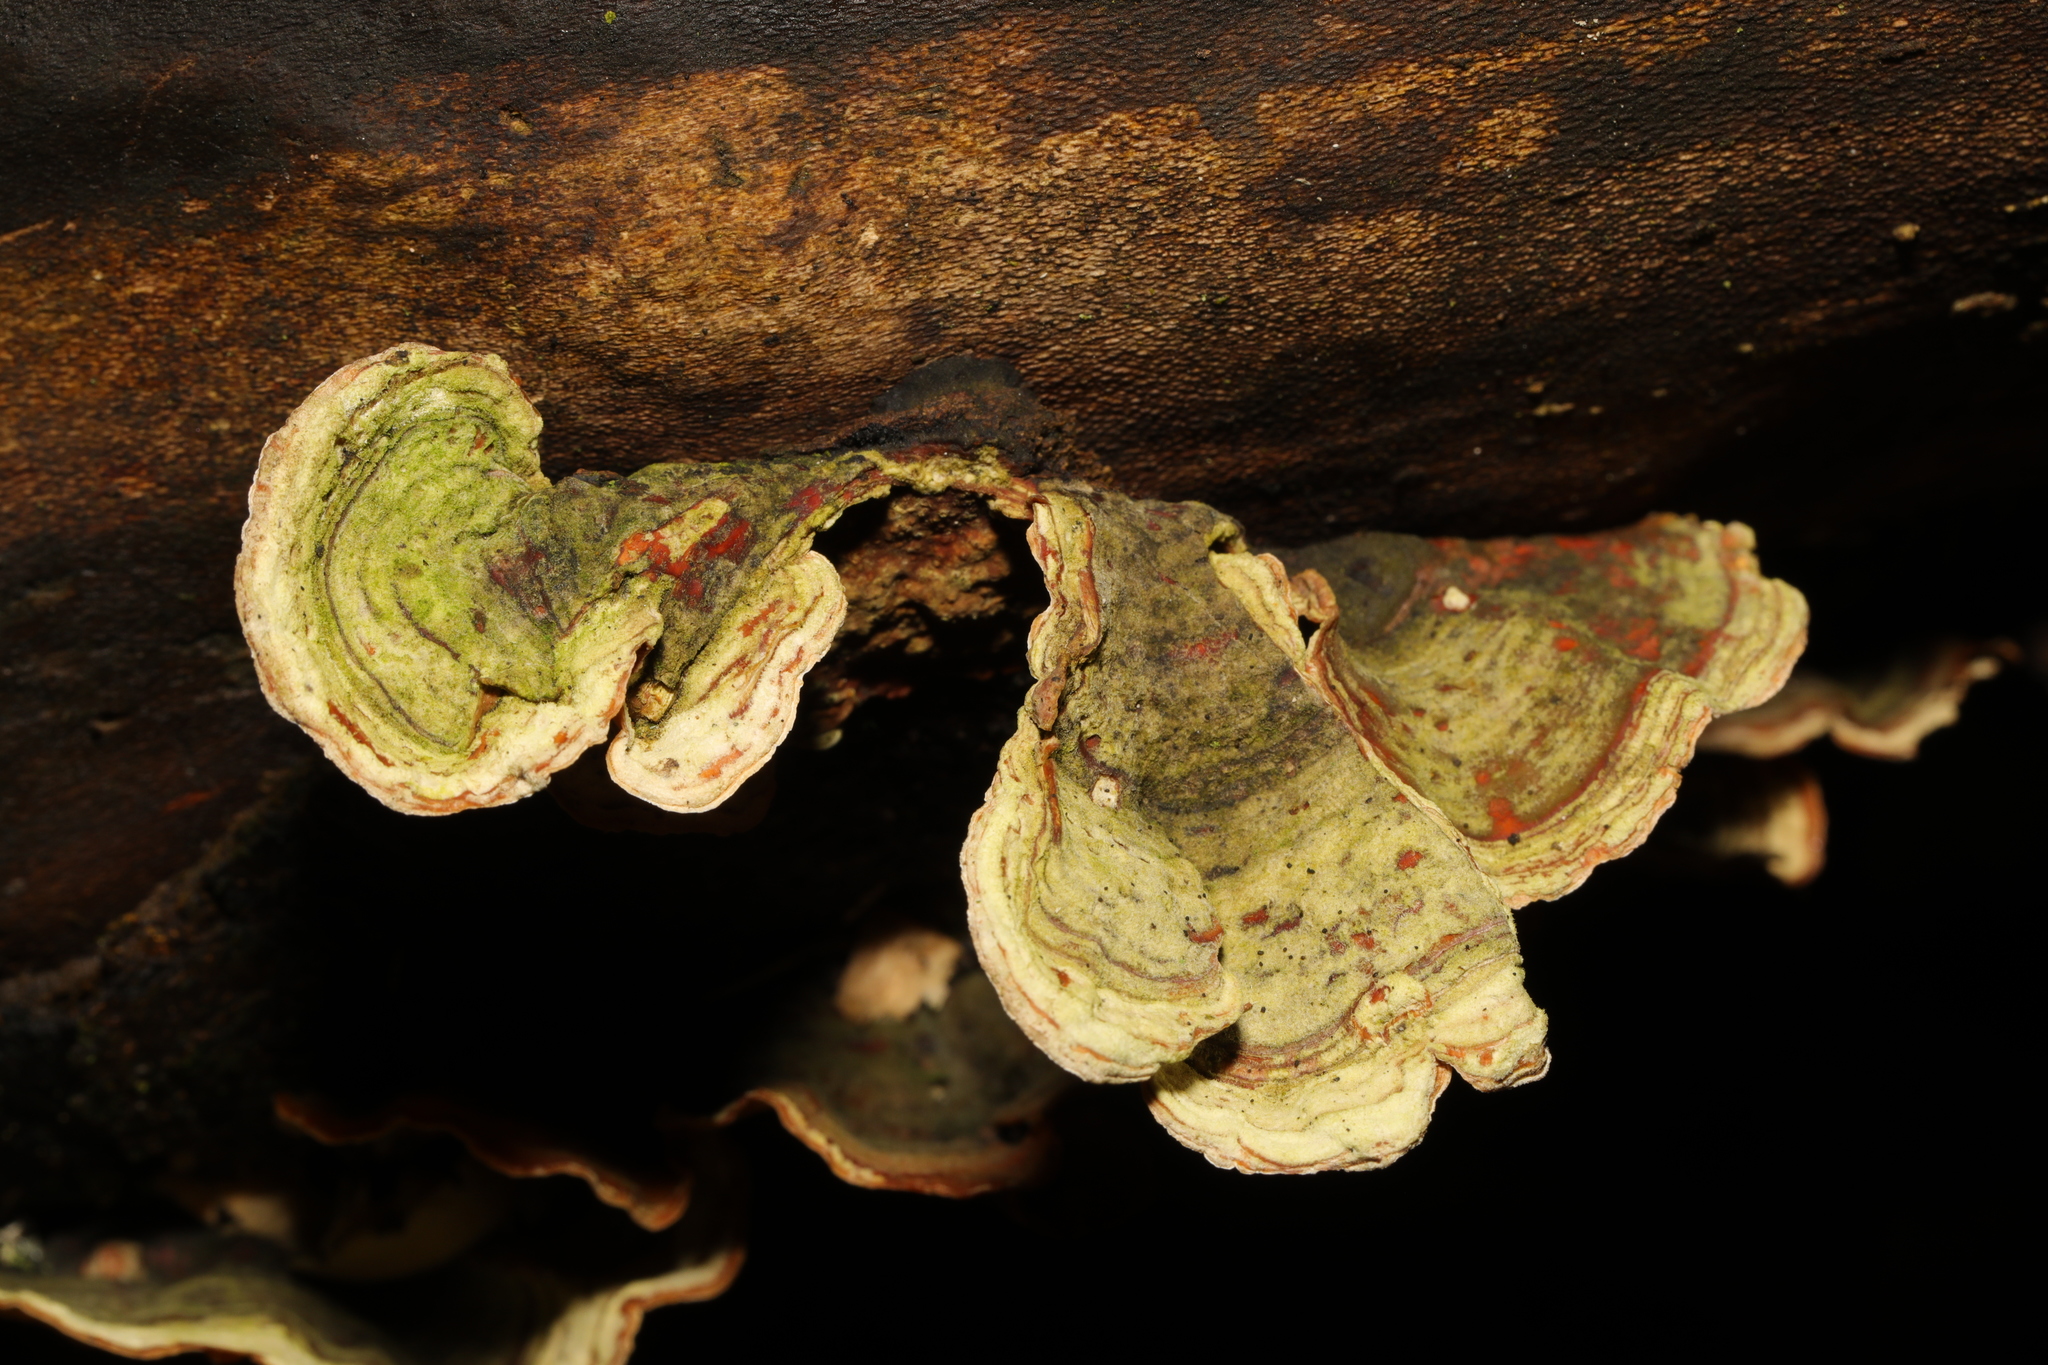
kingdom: Fungi
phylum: Basidiomycota
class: Agaricomycetes
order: Russulales
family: Stereaceae
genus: Stereum
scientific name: Stereum subtomentosum
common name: Yellowing curtain crust
